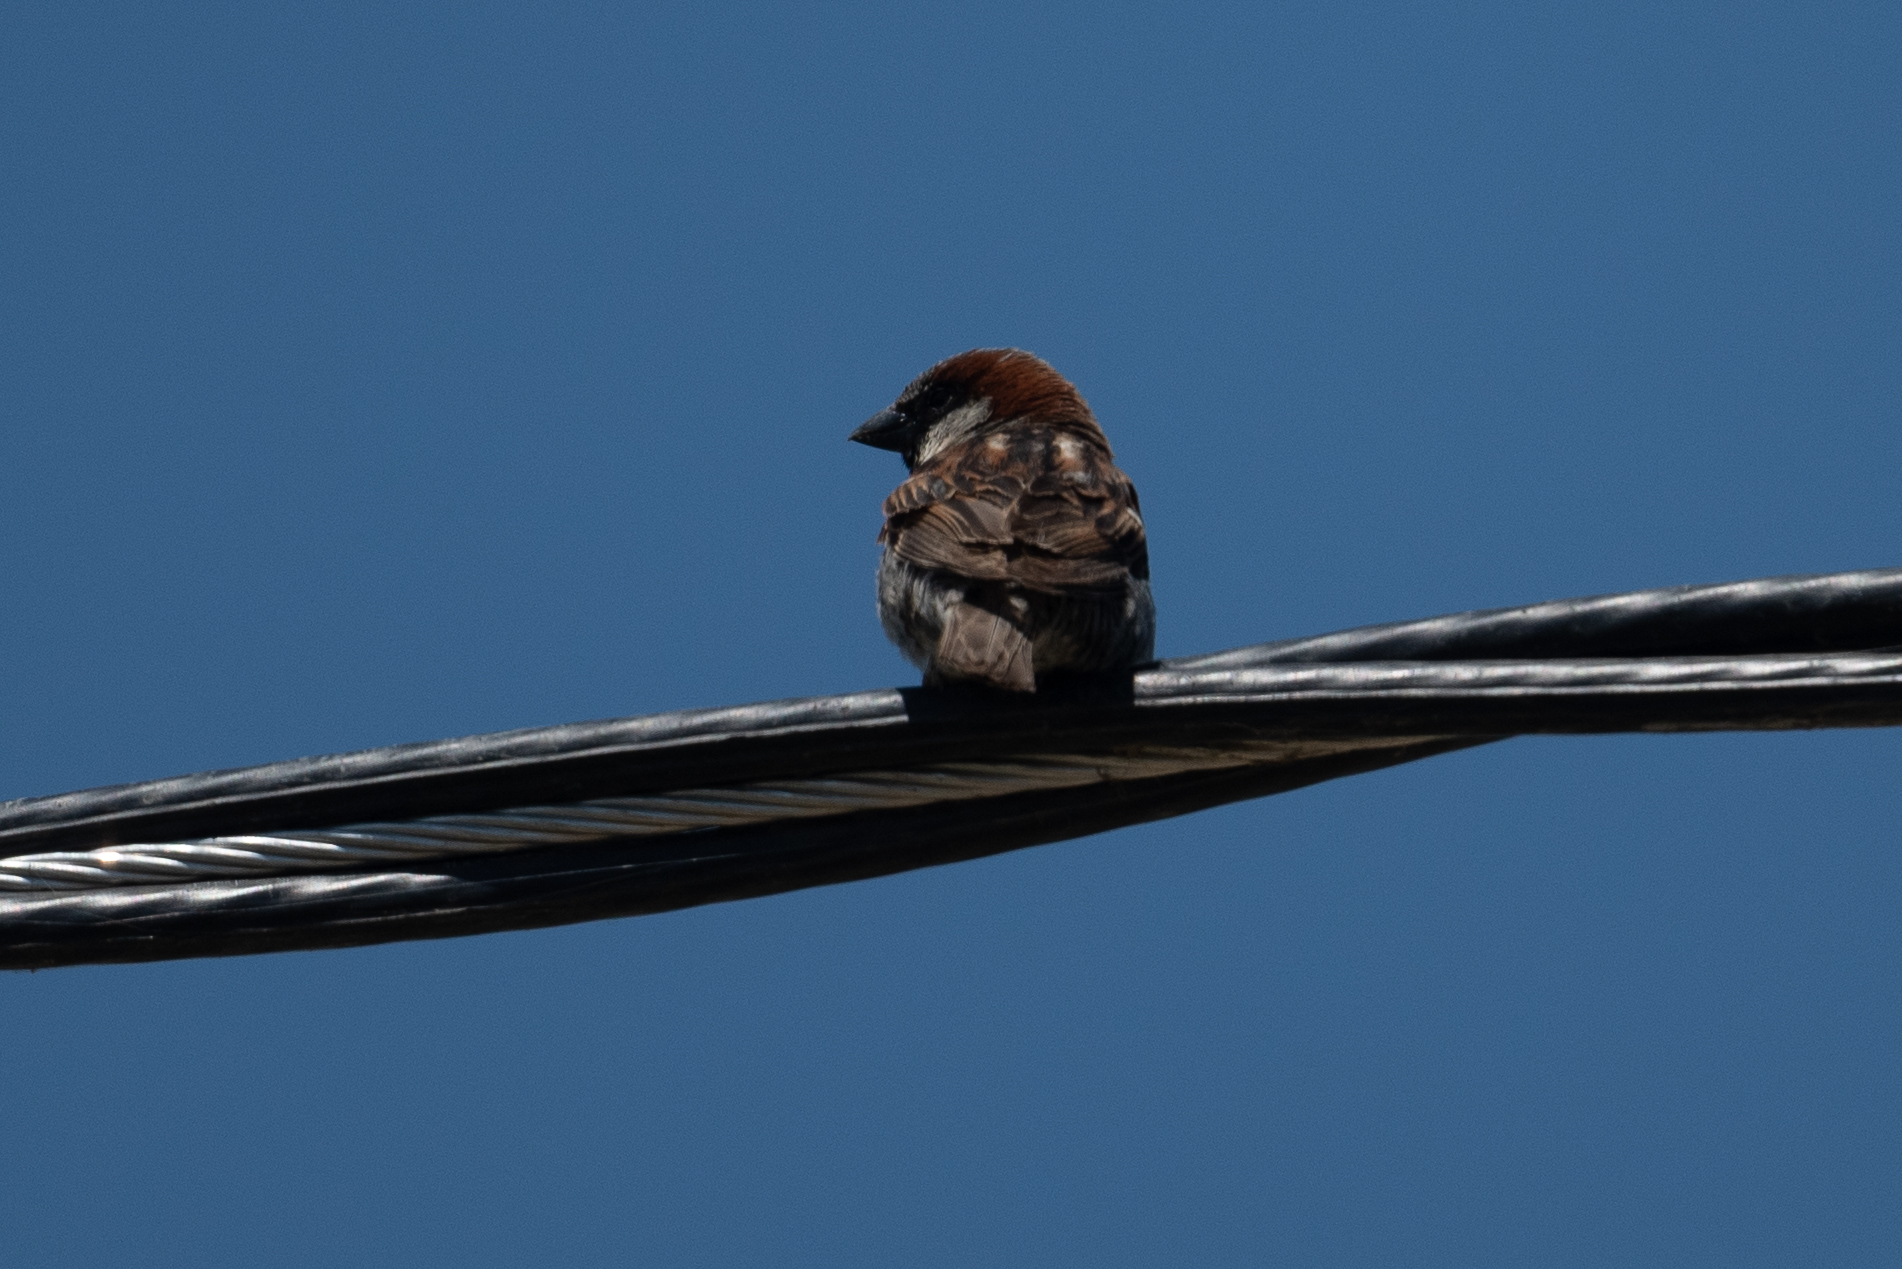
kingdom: Animalia
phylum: Chordata
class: Aves
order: Passeriformes
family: Passeridae
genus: Passer
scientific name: Passer domesticus
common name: House sparrow
